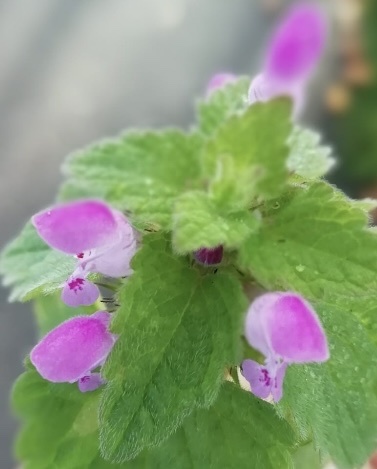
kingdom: Plantae
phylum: Tracheophyta
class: Magnoliopsida
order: Lamiales
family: Lamiaceae
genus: Lamium
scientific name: Lamium purpureum
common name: Red dead-nettle
